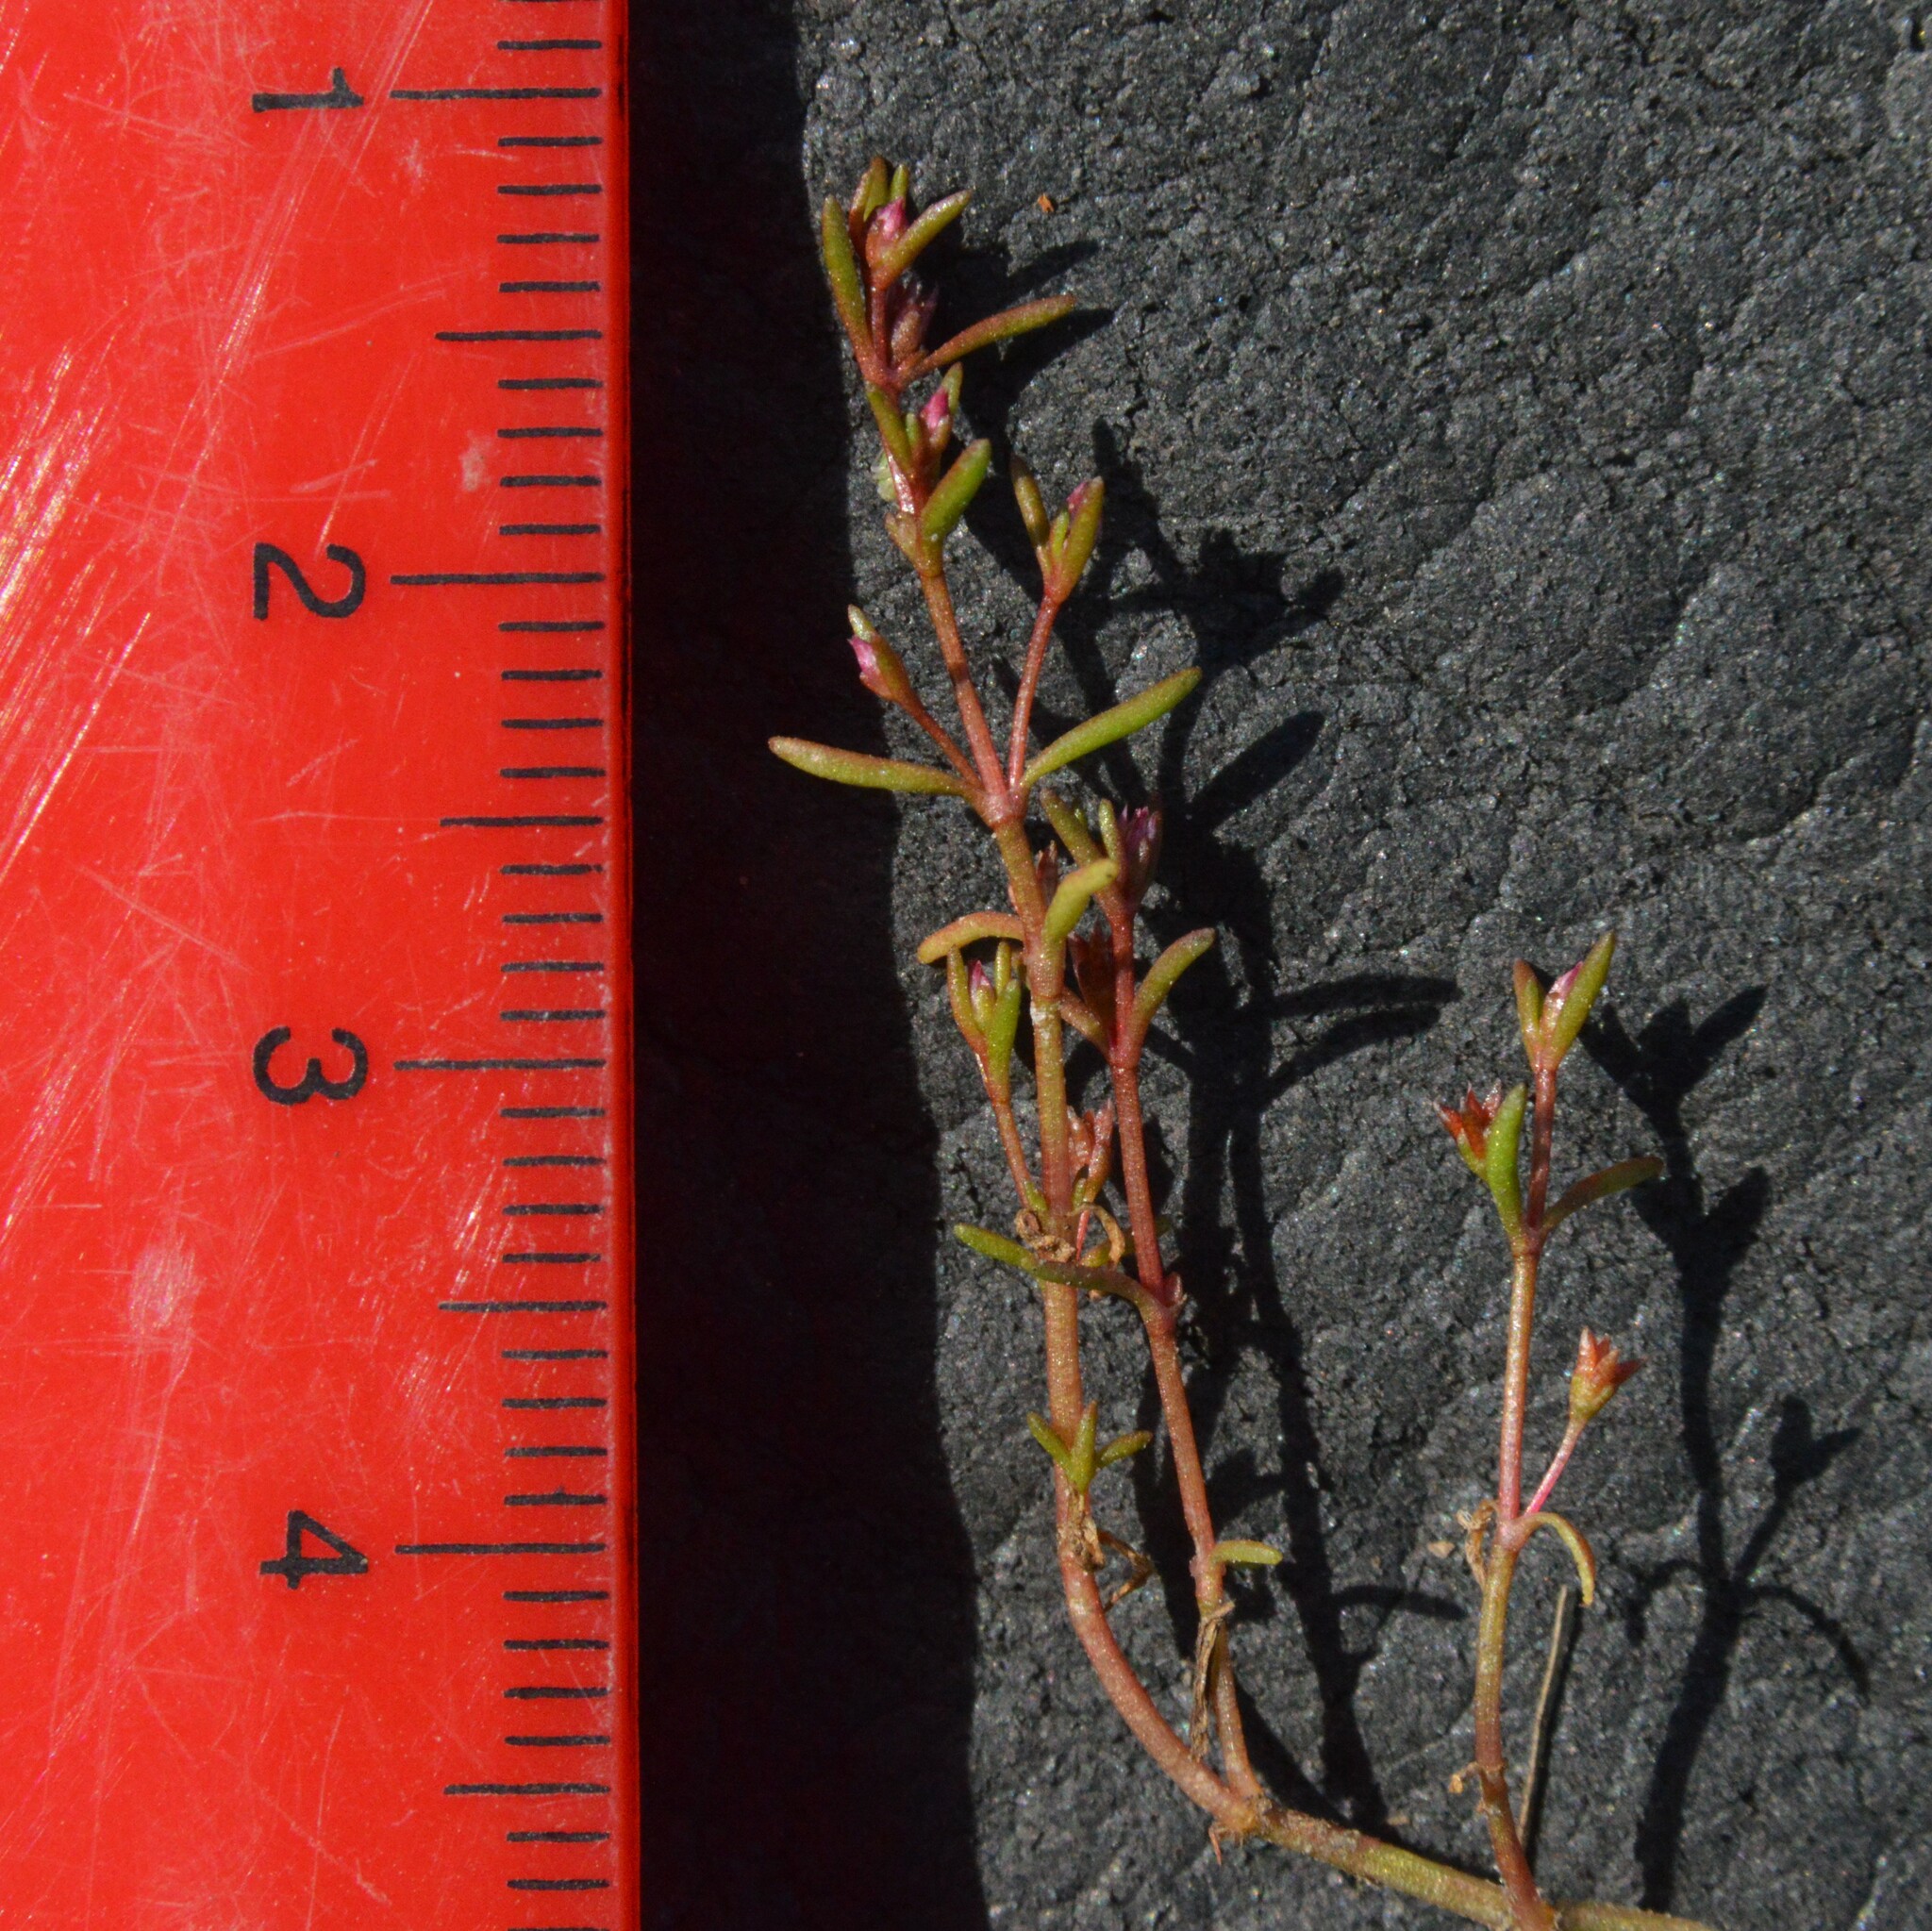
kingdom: Plantae
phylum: Tracheophyta
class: Magnoliopsida
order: Saxifragales
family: Crassulaceae
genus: Crassula
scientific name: Crassula aquatica
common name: Pigmyweed
